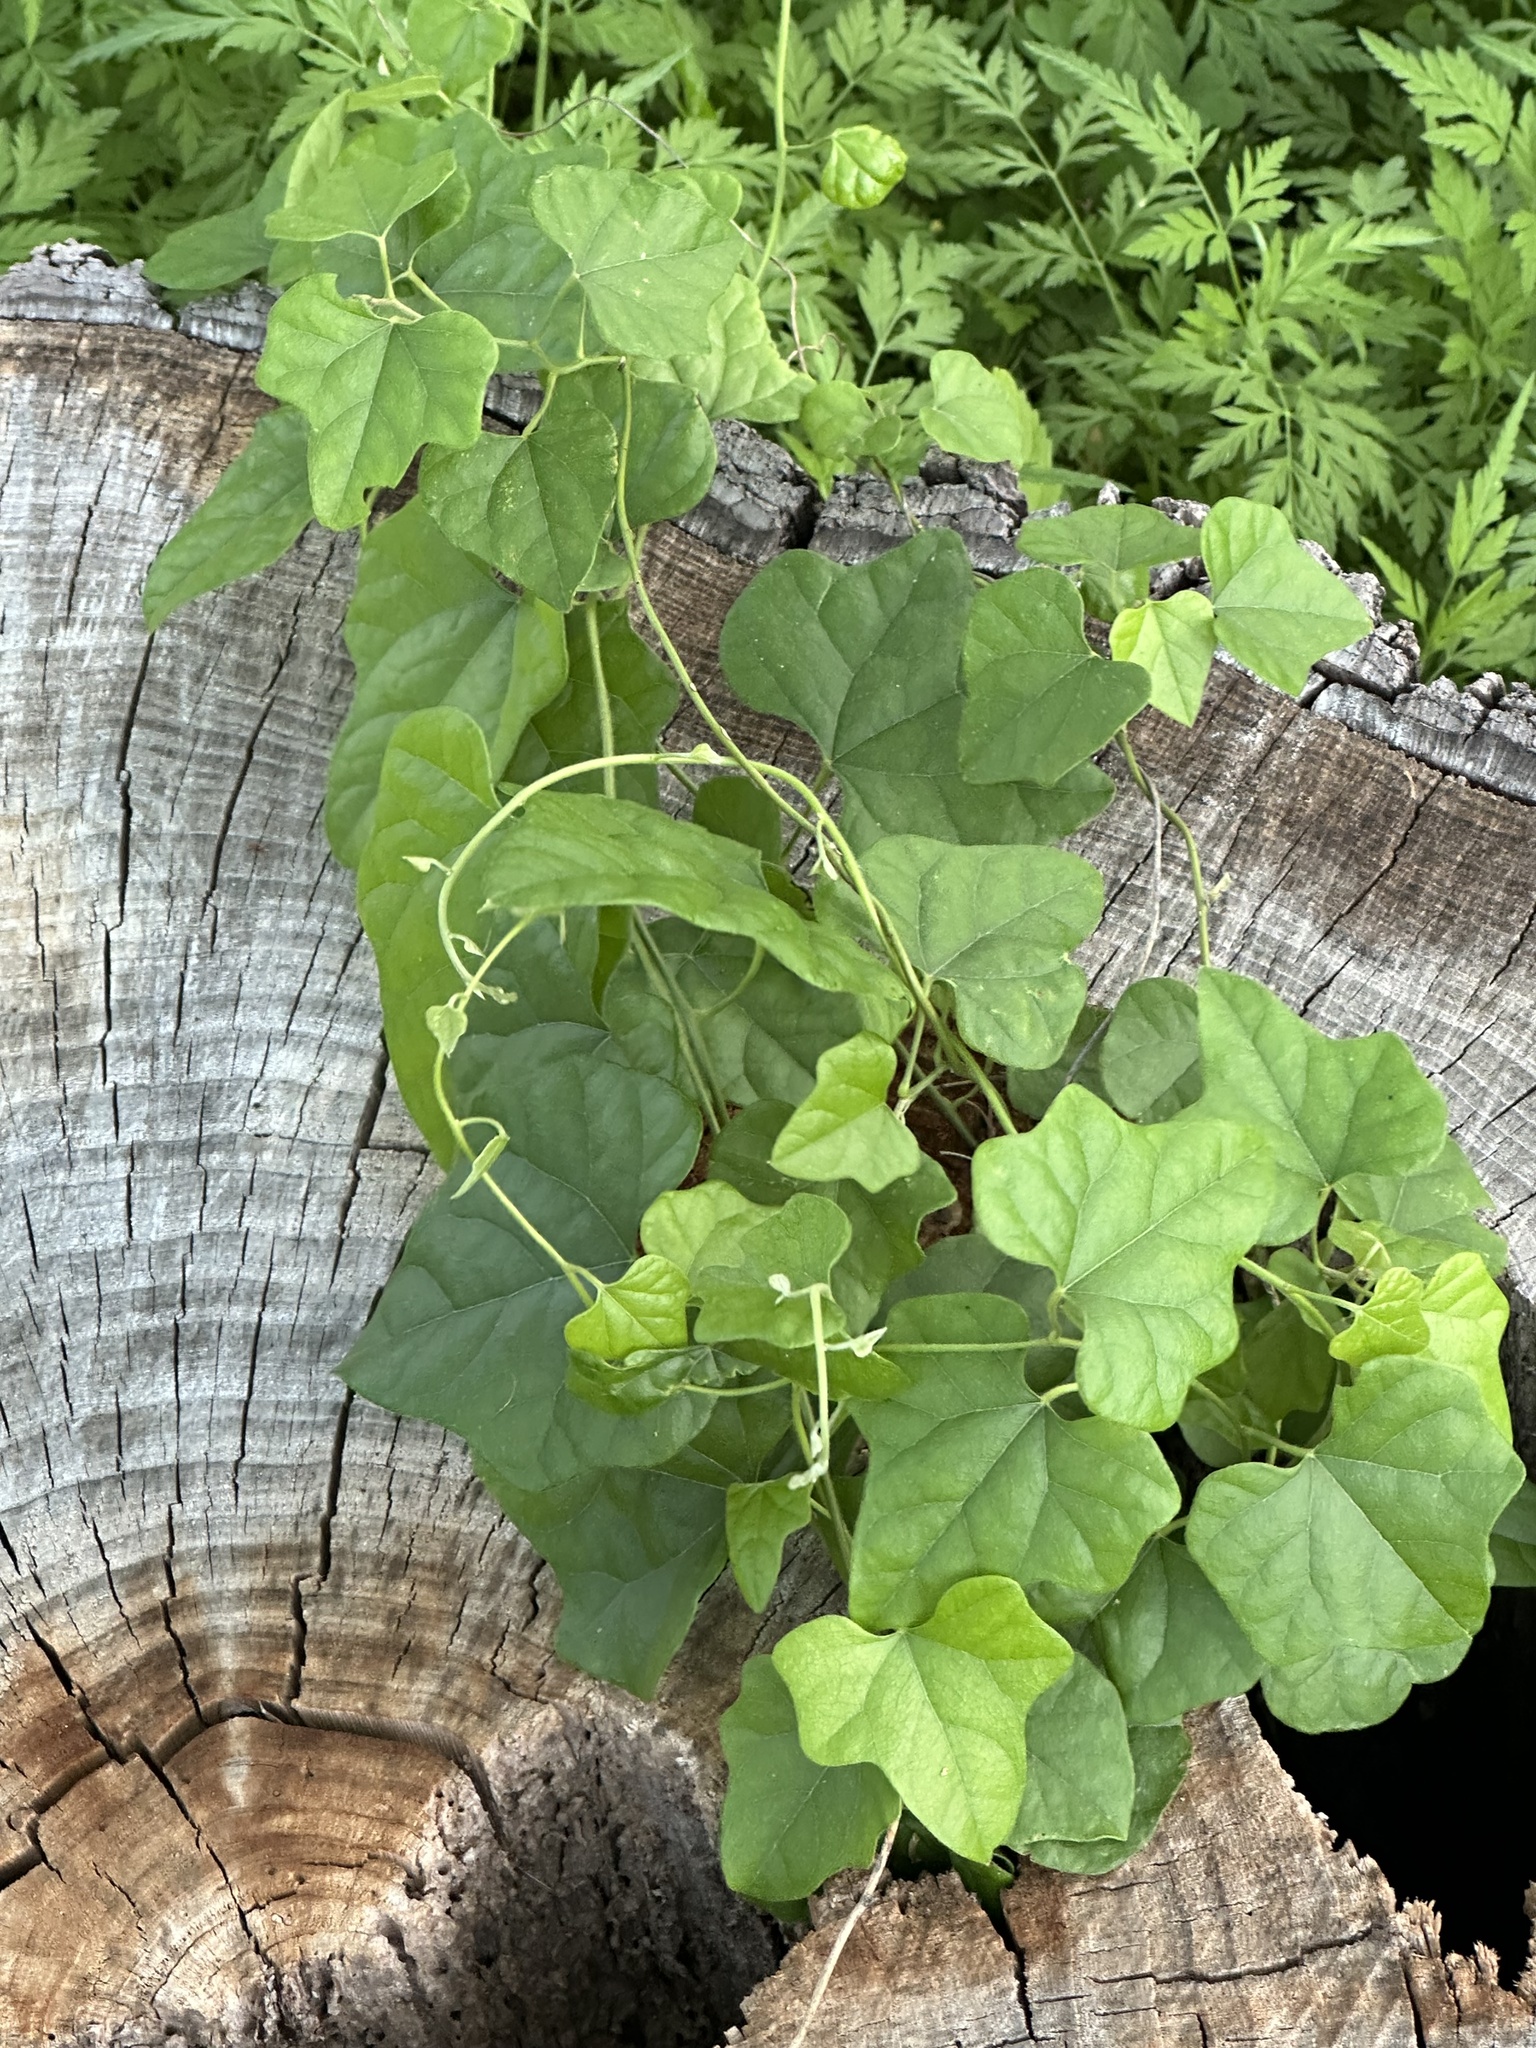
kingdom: Plantae
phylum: Tracheophyta
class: Magnoliopsida
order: Ranunculales
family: Menispermaceae
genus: Cocculus
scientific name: Cocculus carolinus
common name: Carolina moonseed
